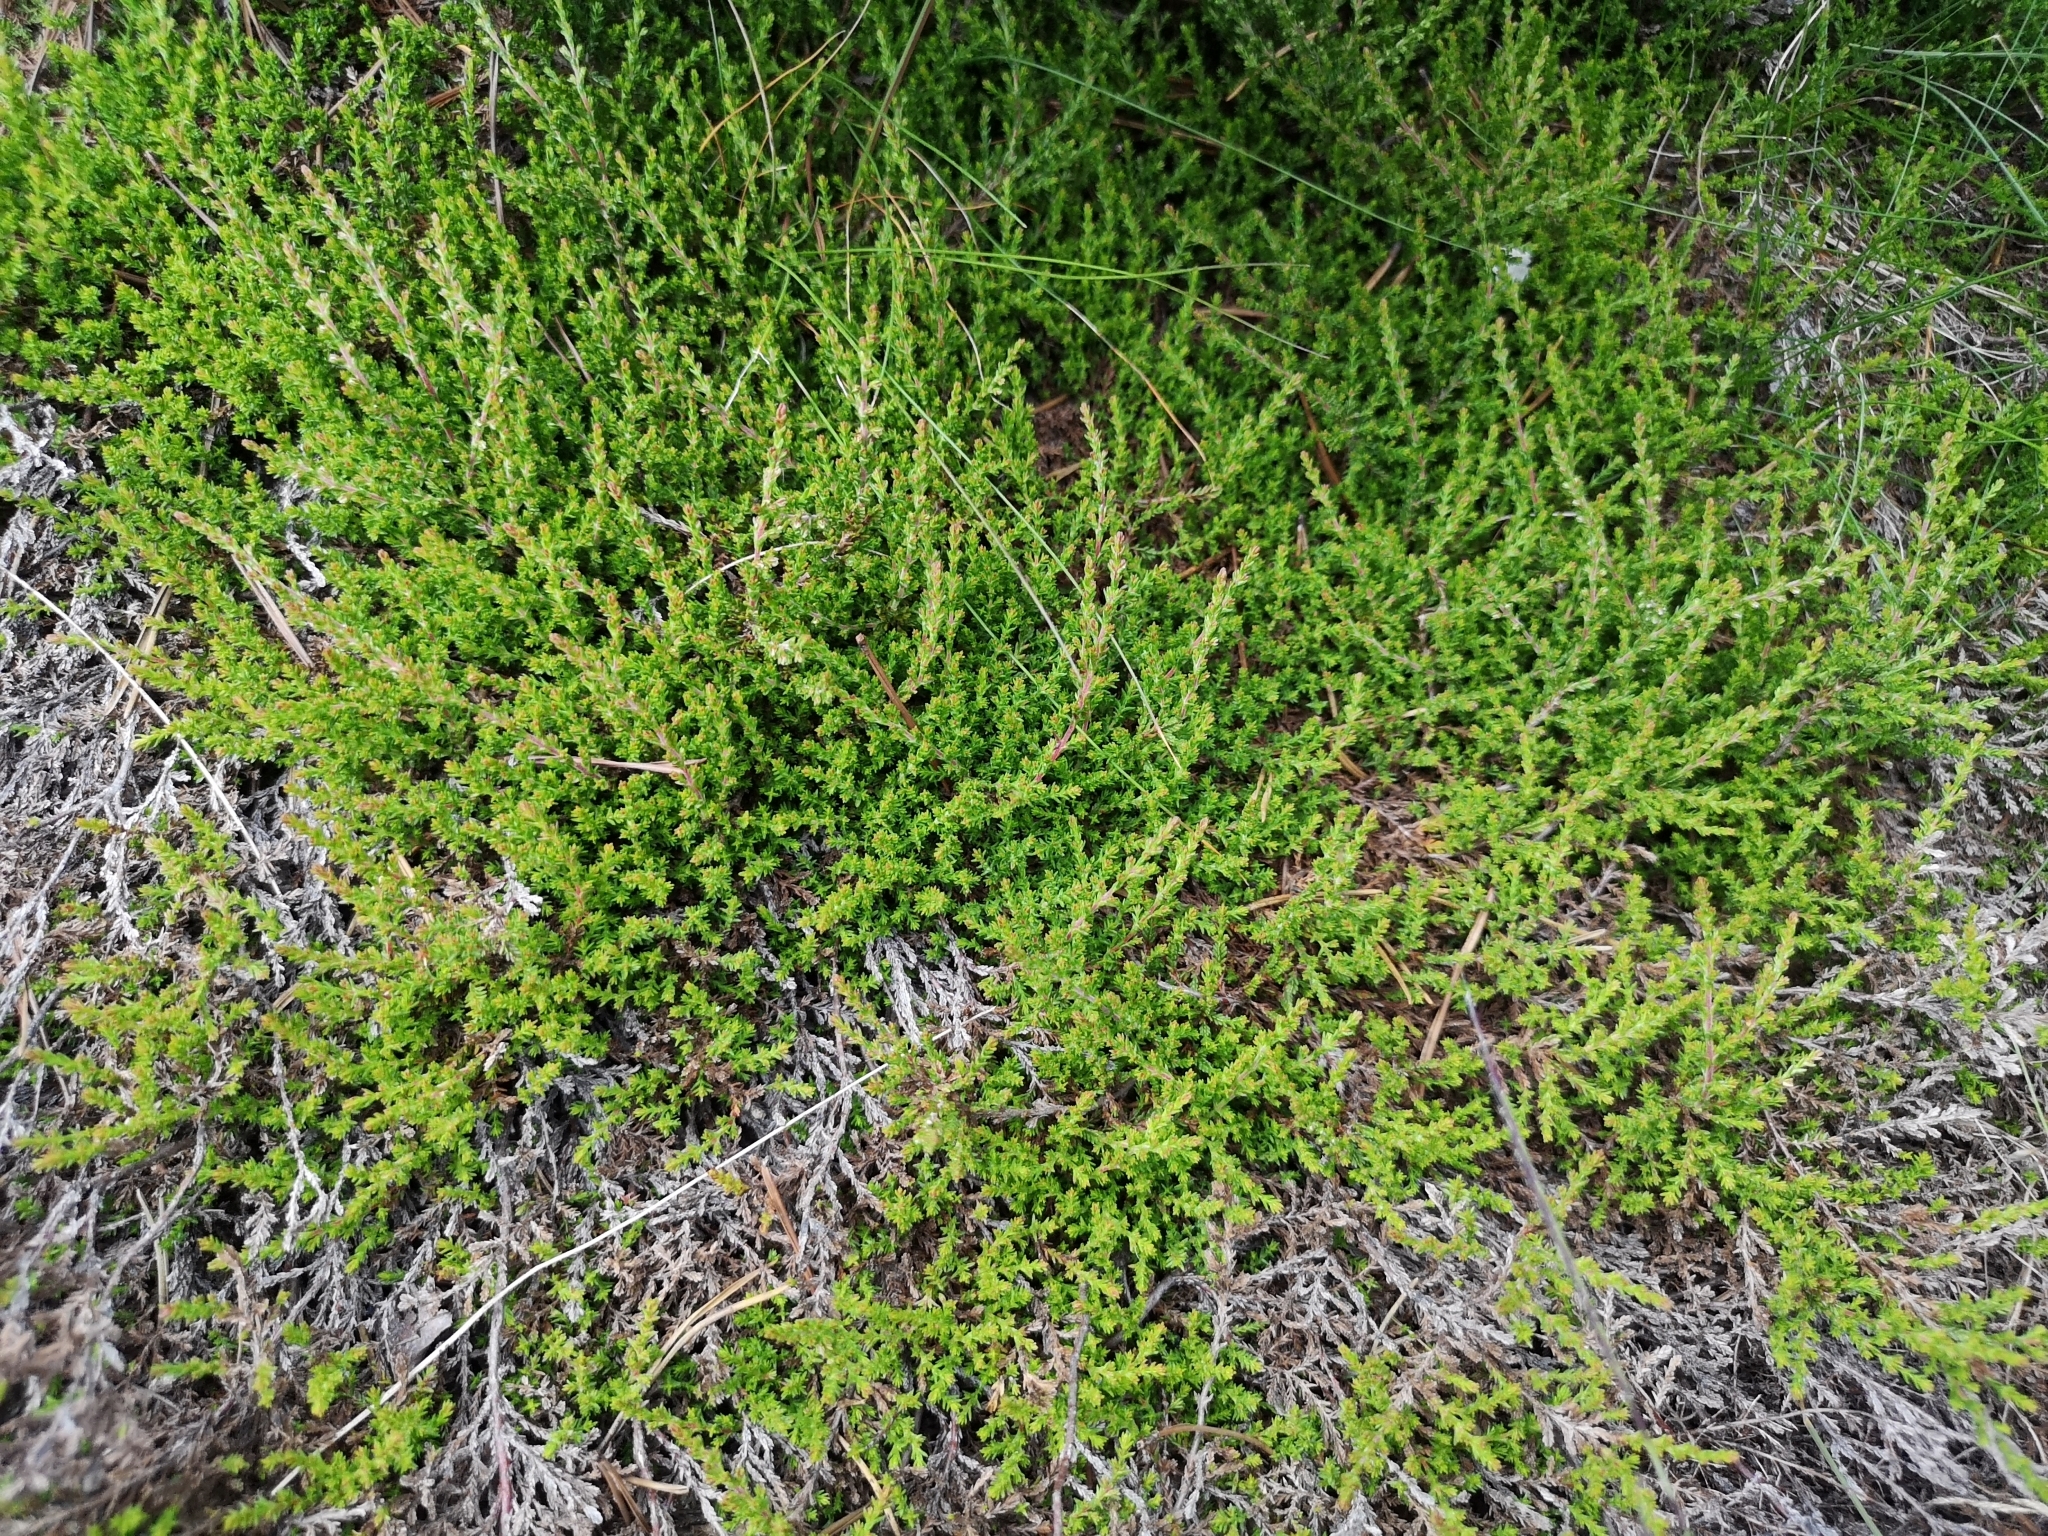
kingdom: Plantae
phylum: Tracheophyta
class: Magnoliopsida
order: Ericales
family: Ericaceae
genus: Calluna
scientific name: Calluna vulgaris
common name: Heather
